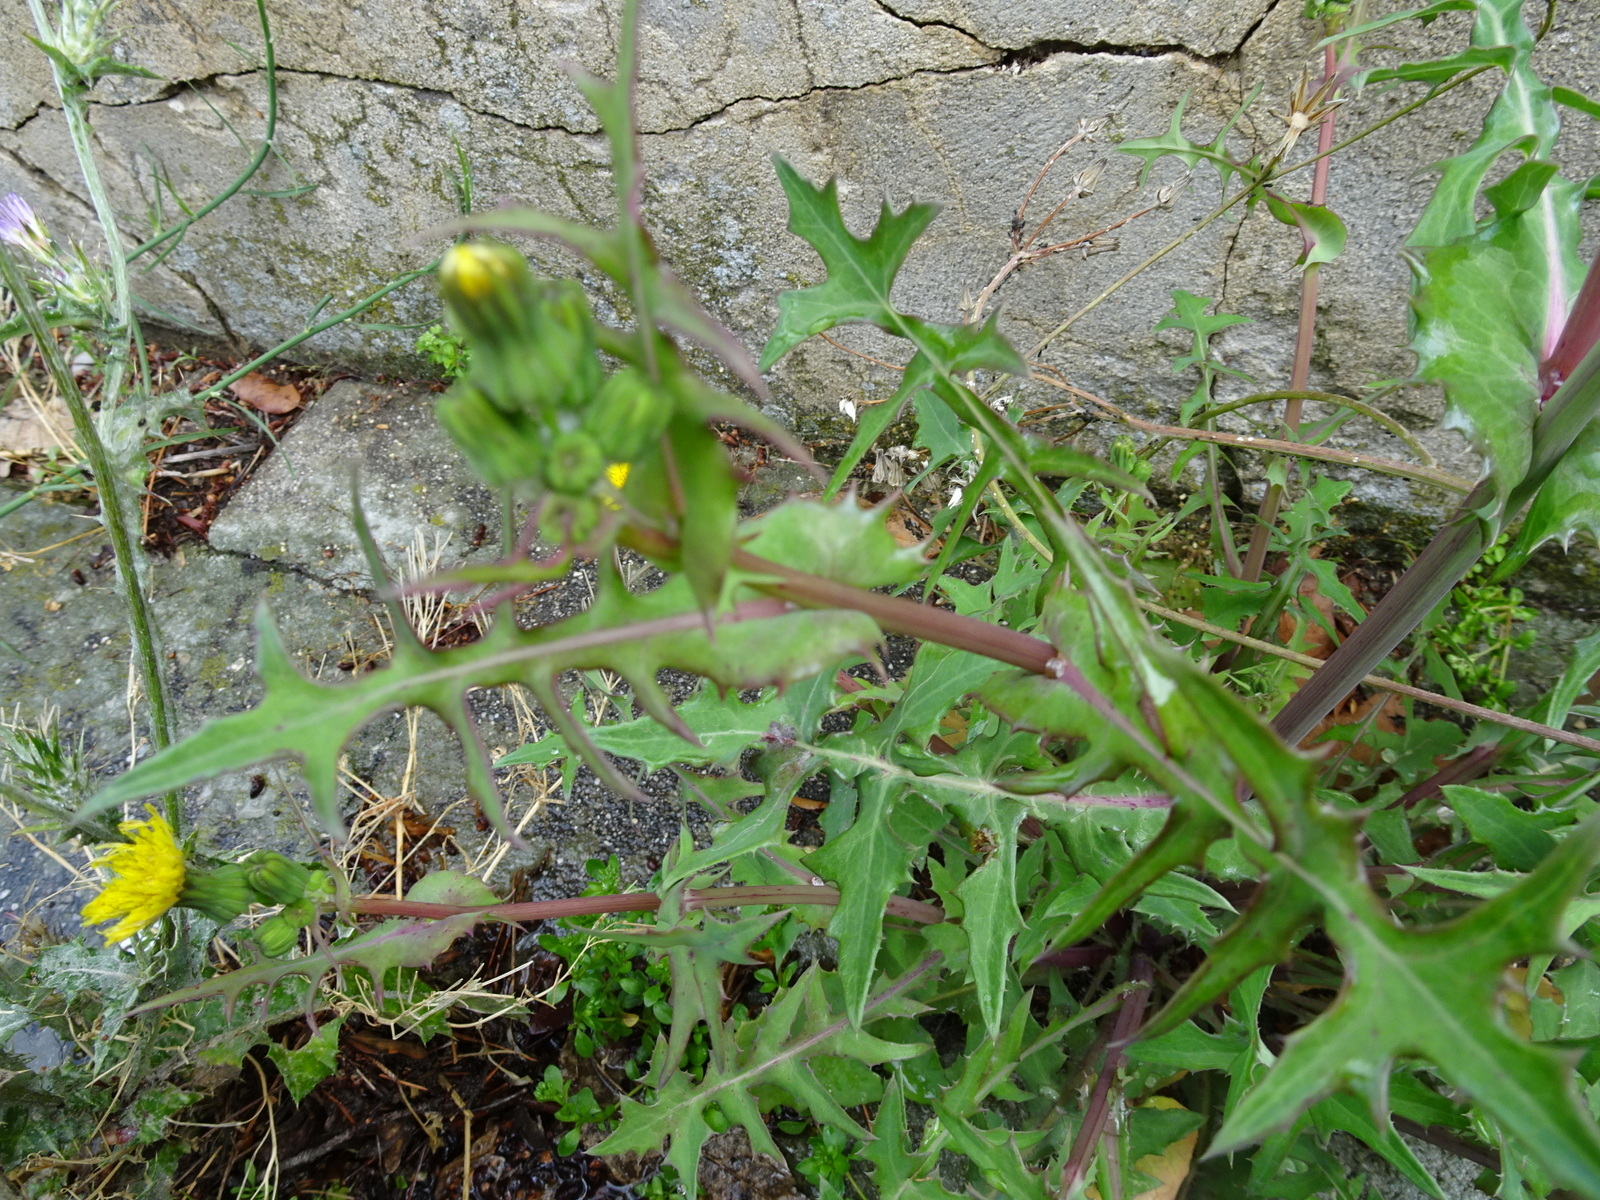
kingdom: Plantae
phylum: Tracheophyta
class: Magnoliopsida
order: Asterales
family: Asteraceae
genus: Sonchus
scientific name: Sonchus oleraceus
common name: Common sowthistle
